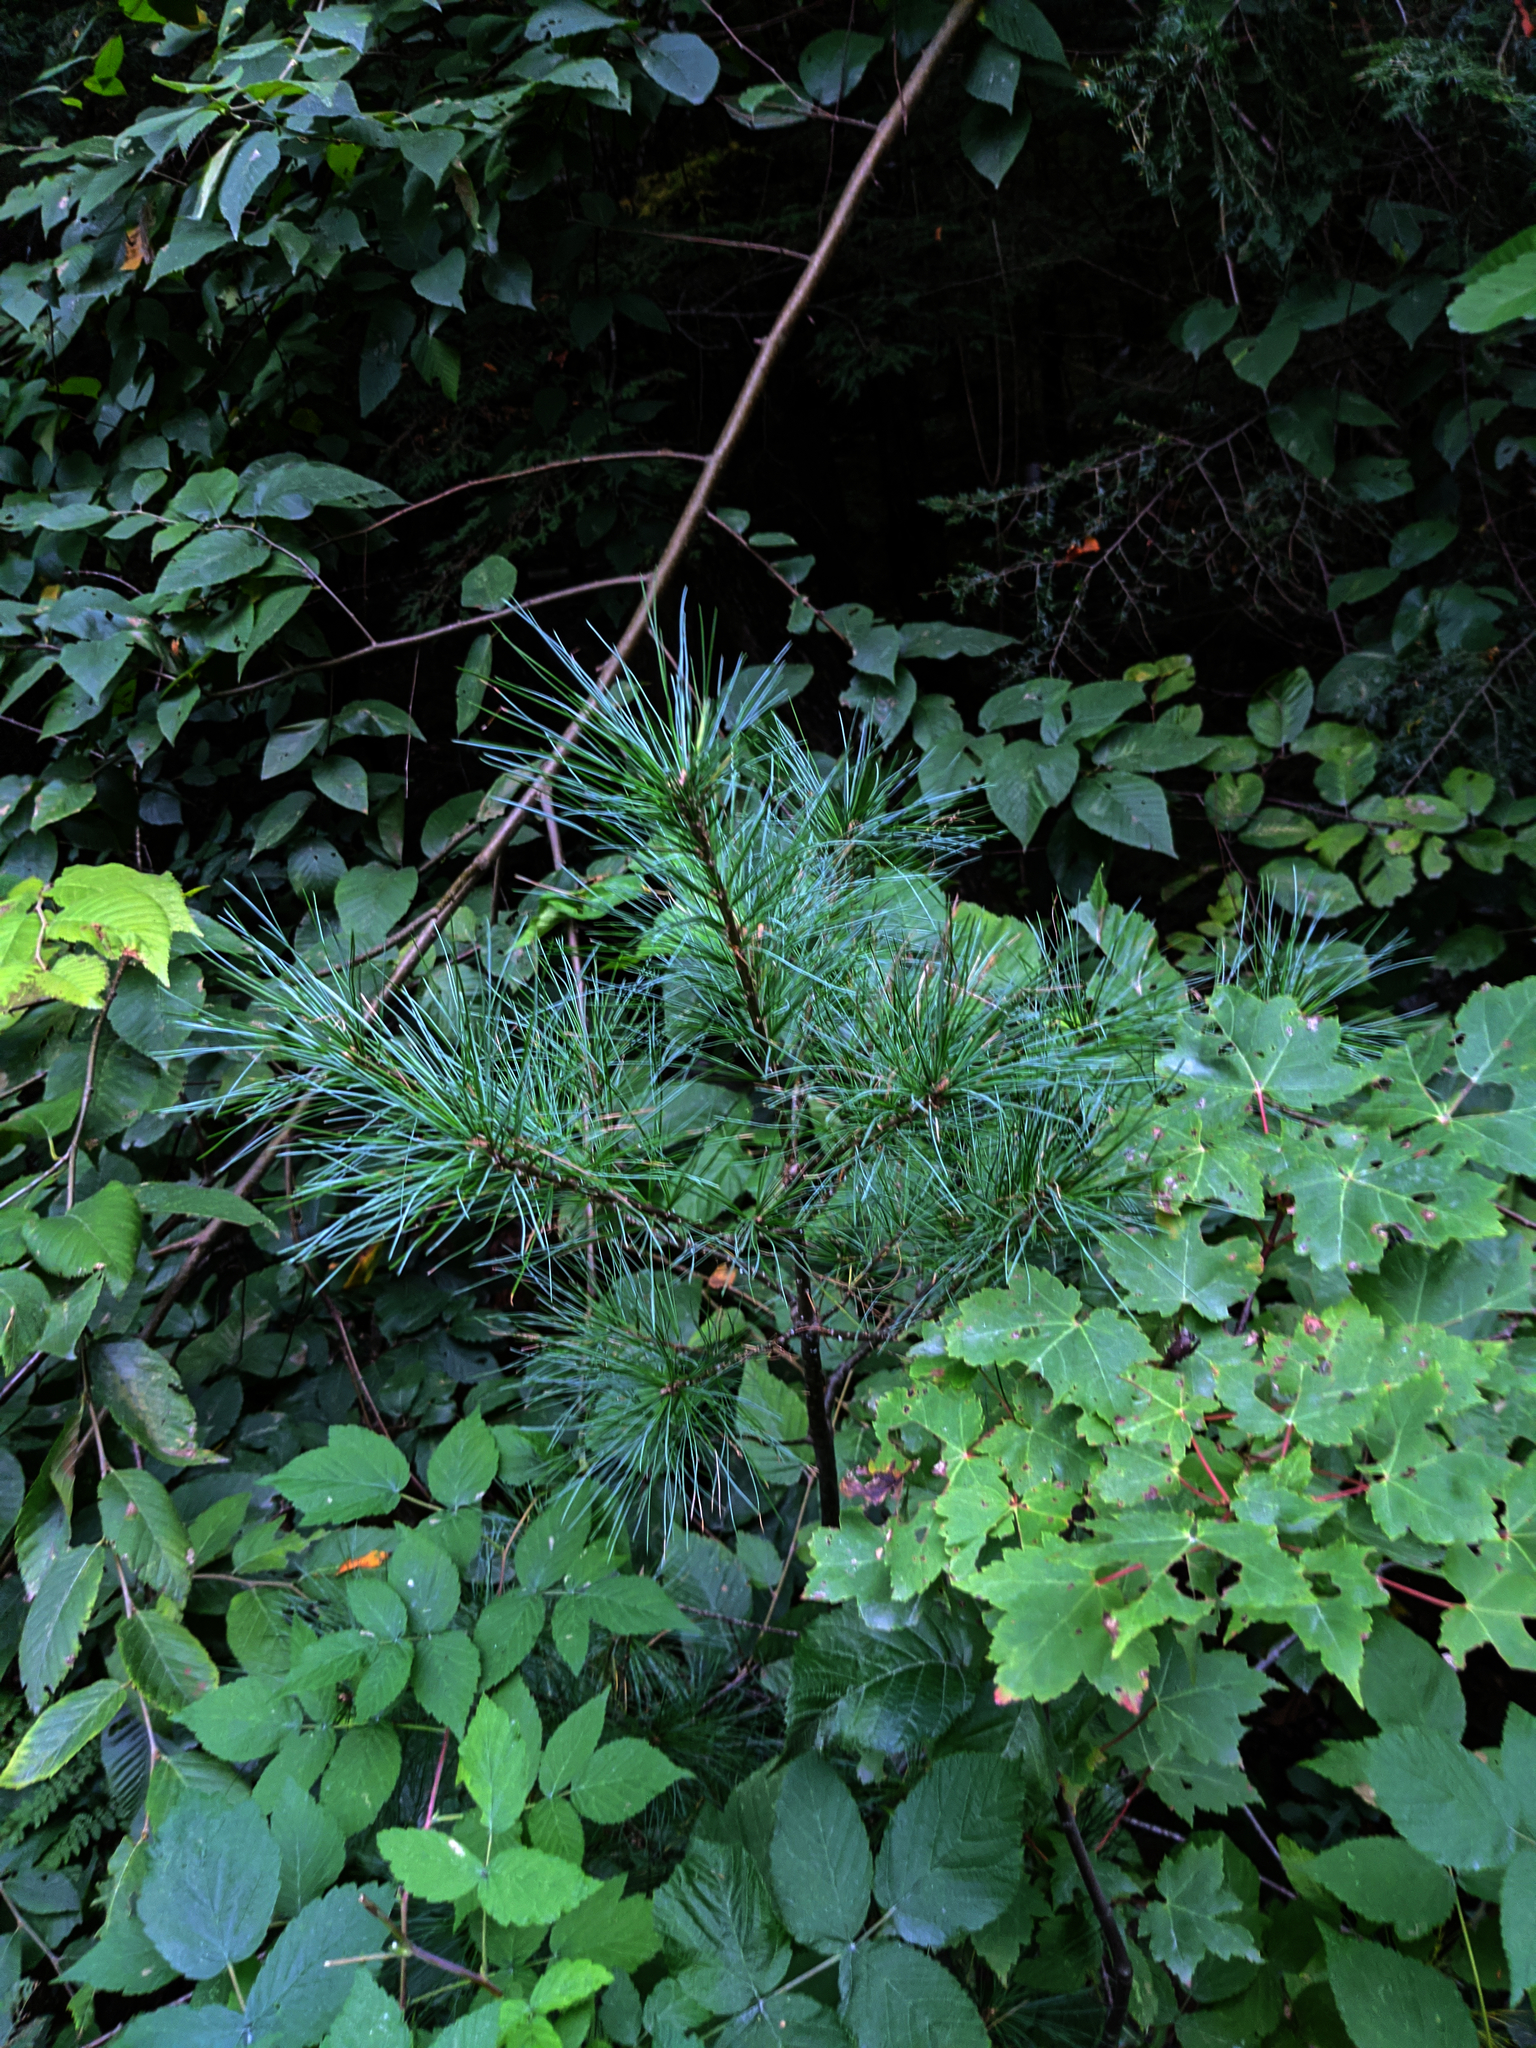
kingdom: Plantae
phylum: Tracheophyta
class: Pinopsida
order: Pinales
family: Pinaceae
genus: Pinus
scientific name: Pinus strobus
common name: Weymouth pine
